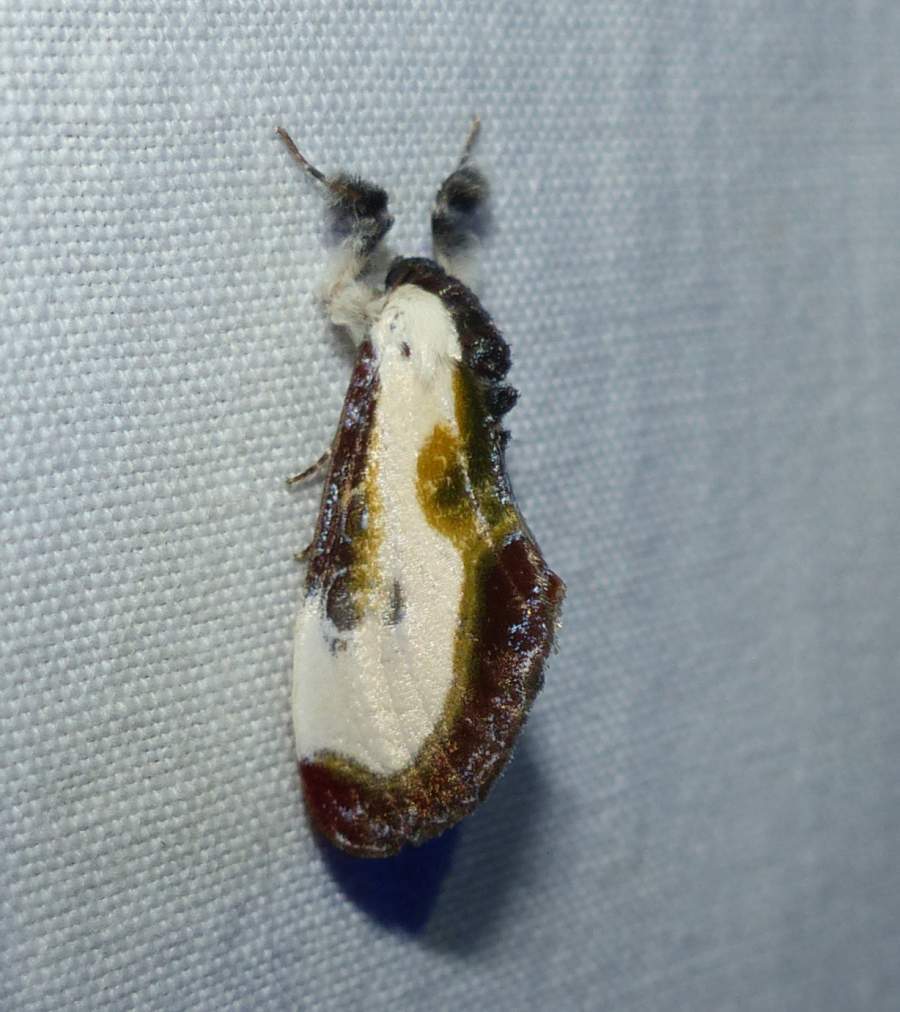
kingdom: Animalia
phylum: Arthropoda
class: Insecta
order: Lepidoptera
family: Noctuidae
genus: Eudryas
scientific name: Eudryas grata
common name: Beautiful wood-nymph
